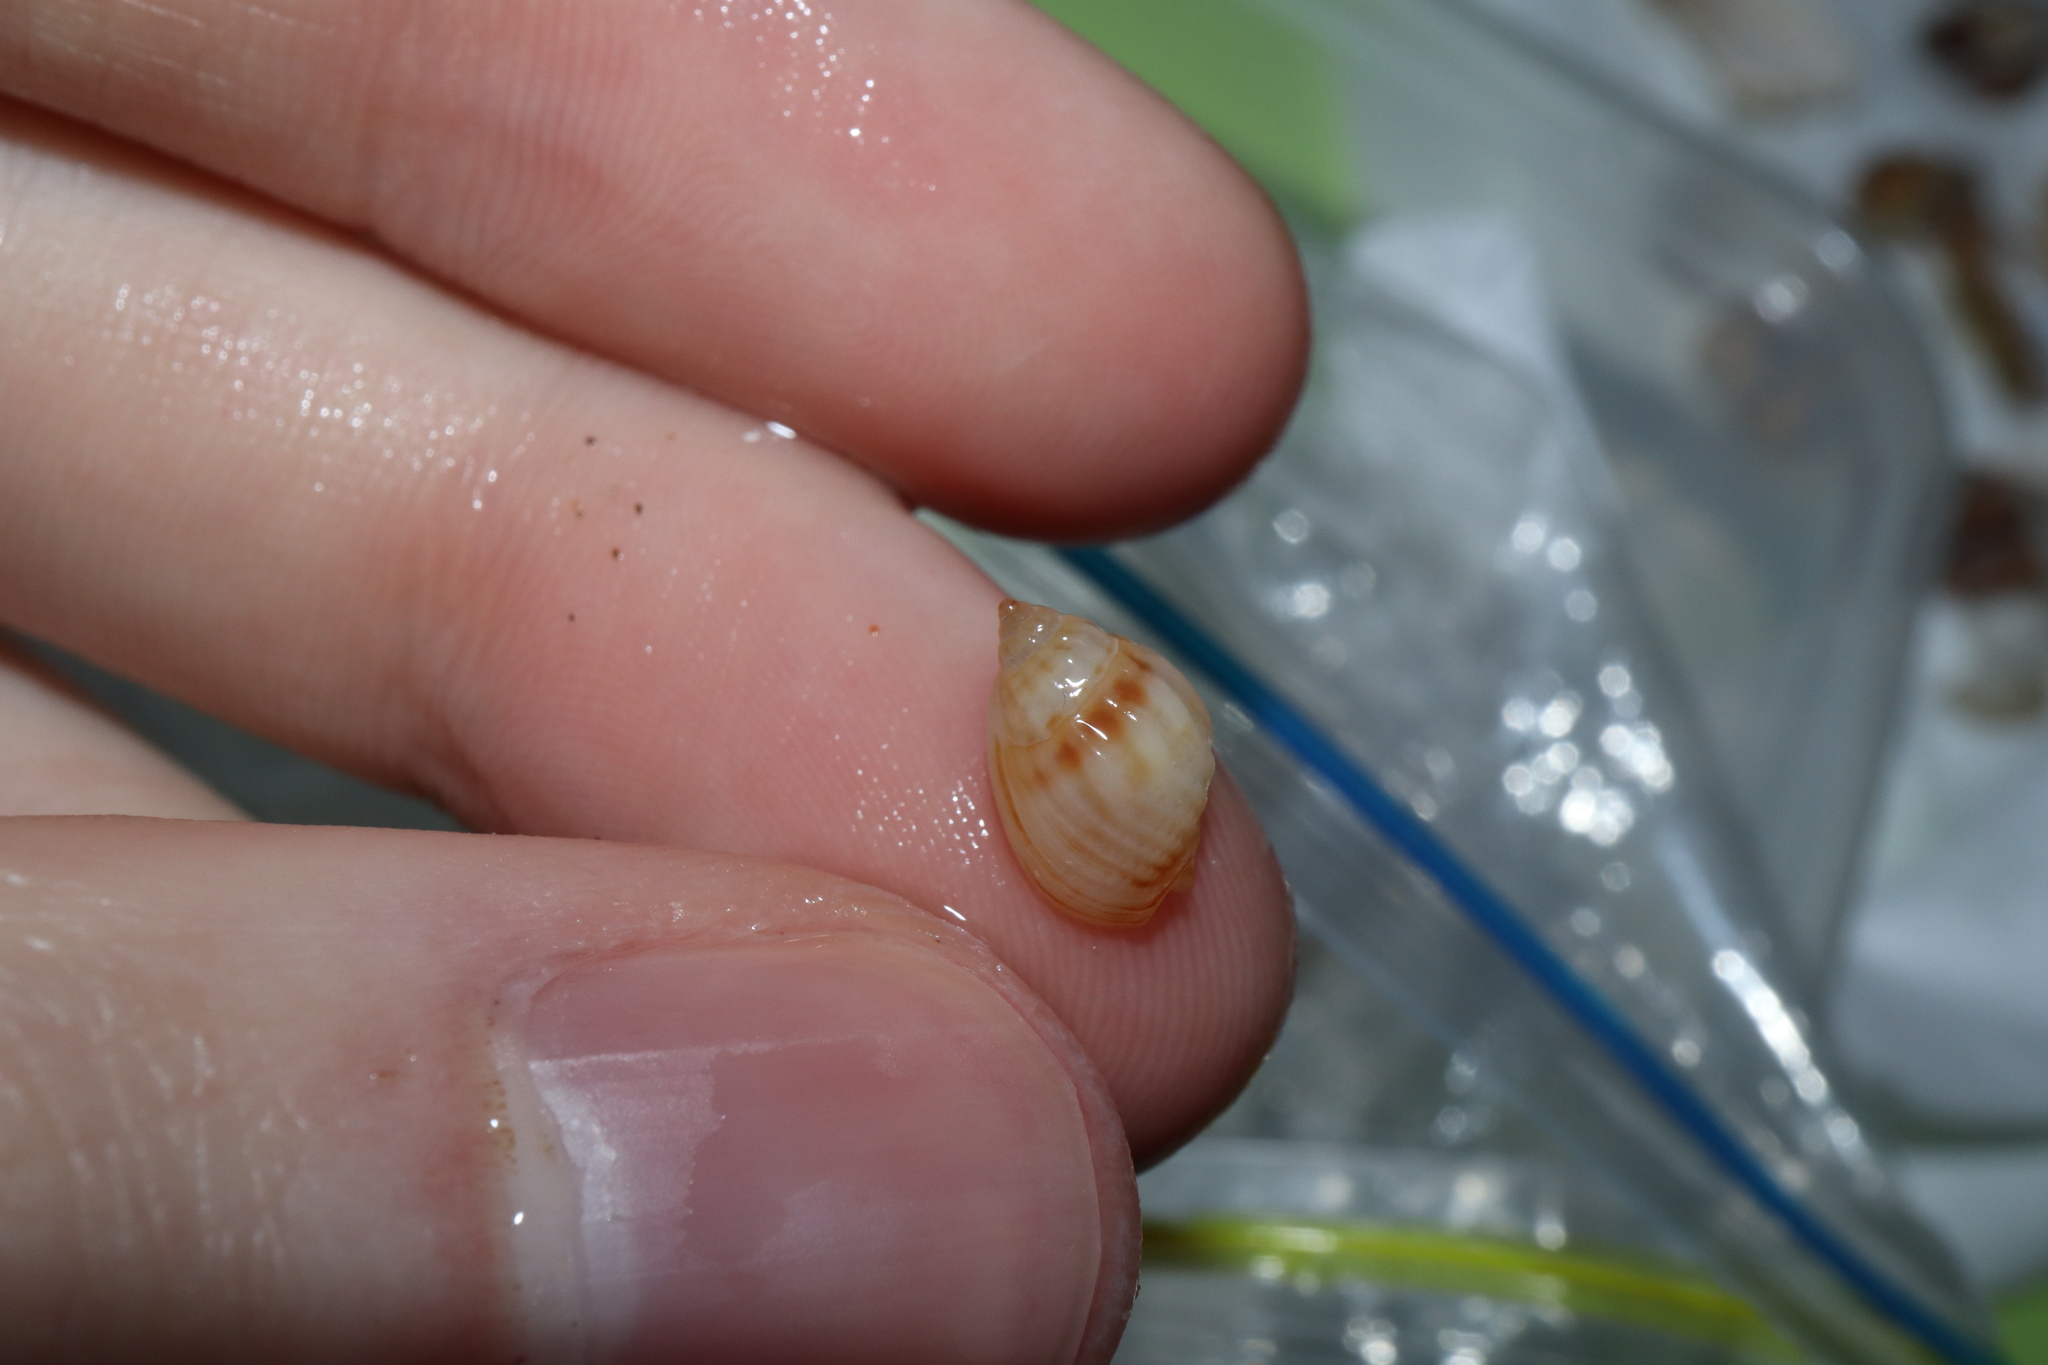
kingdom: Animalia
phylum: Mollusca
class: Gastropoda
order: Neogastropoda
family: Nassariidae
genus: Nassarius
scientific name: Nassarius jonasii
